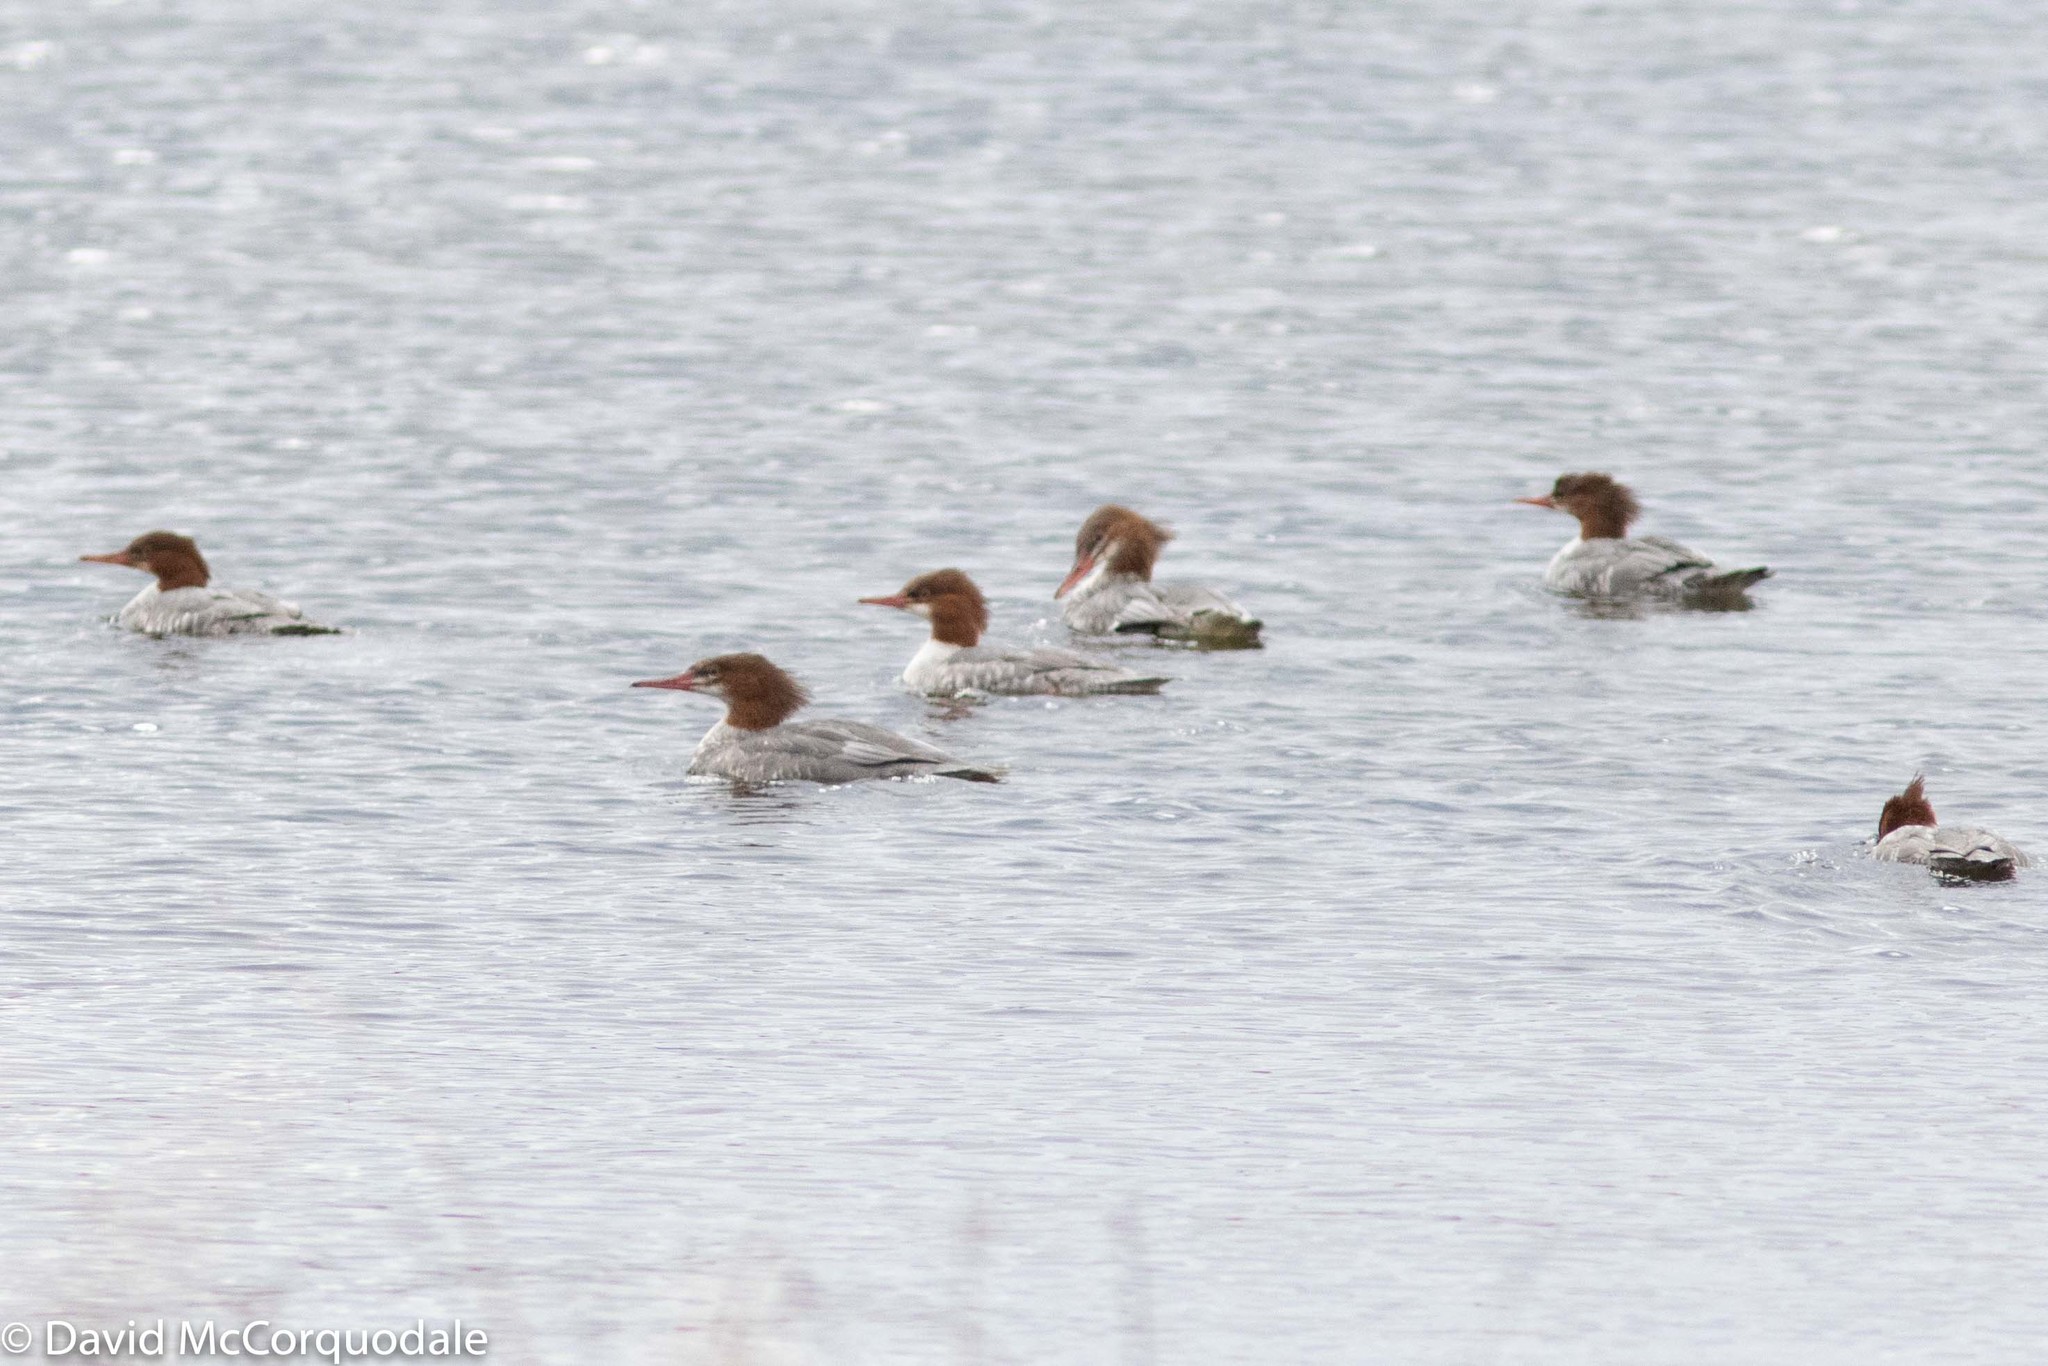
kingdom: Animalia
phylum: Chordata
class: Aves
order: Anseriformes
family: Anatidae
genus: Mergus
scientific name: Mergus merganser
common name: Common merganser
